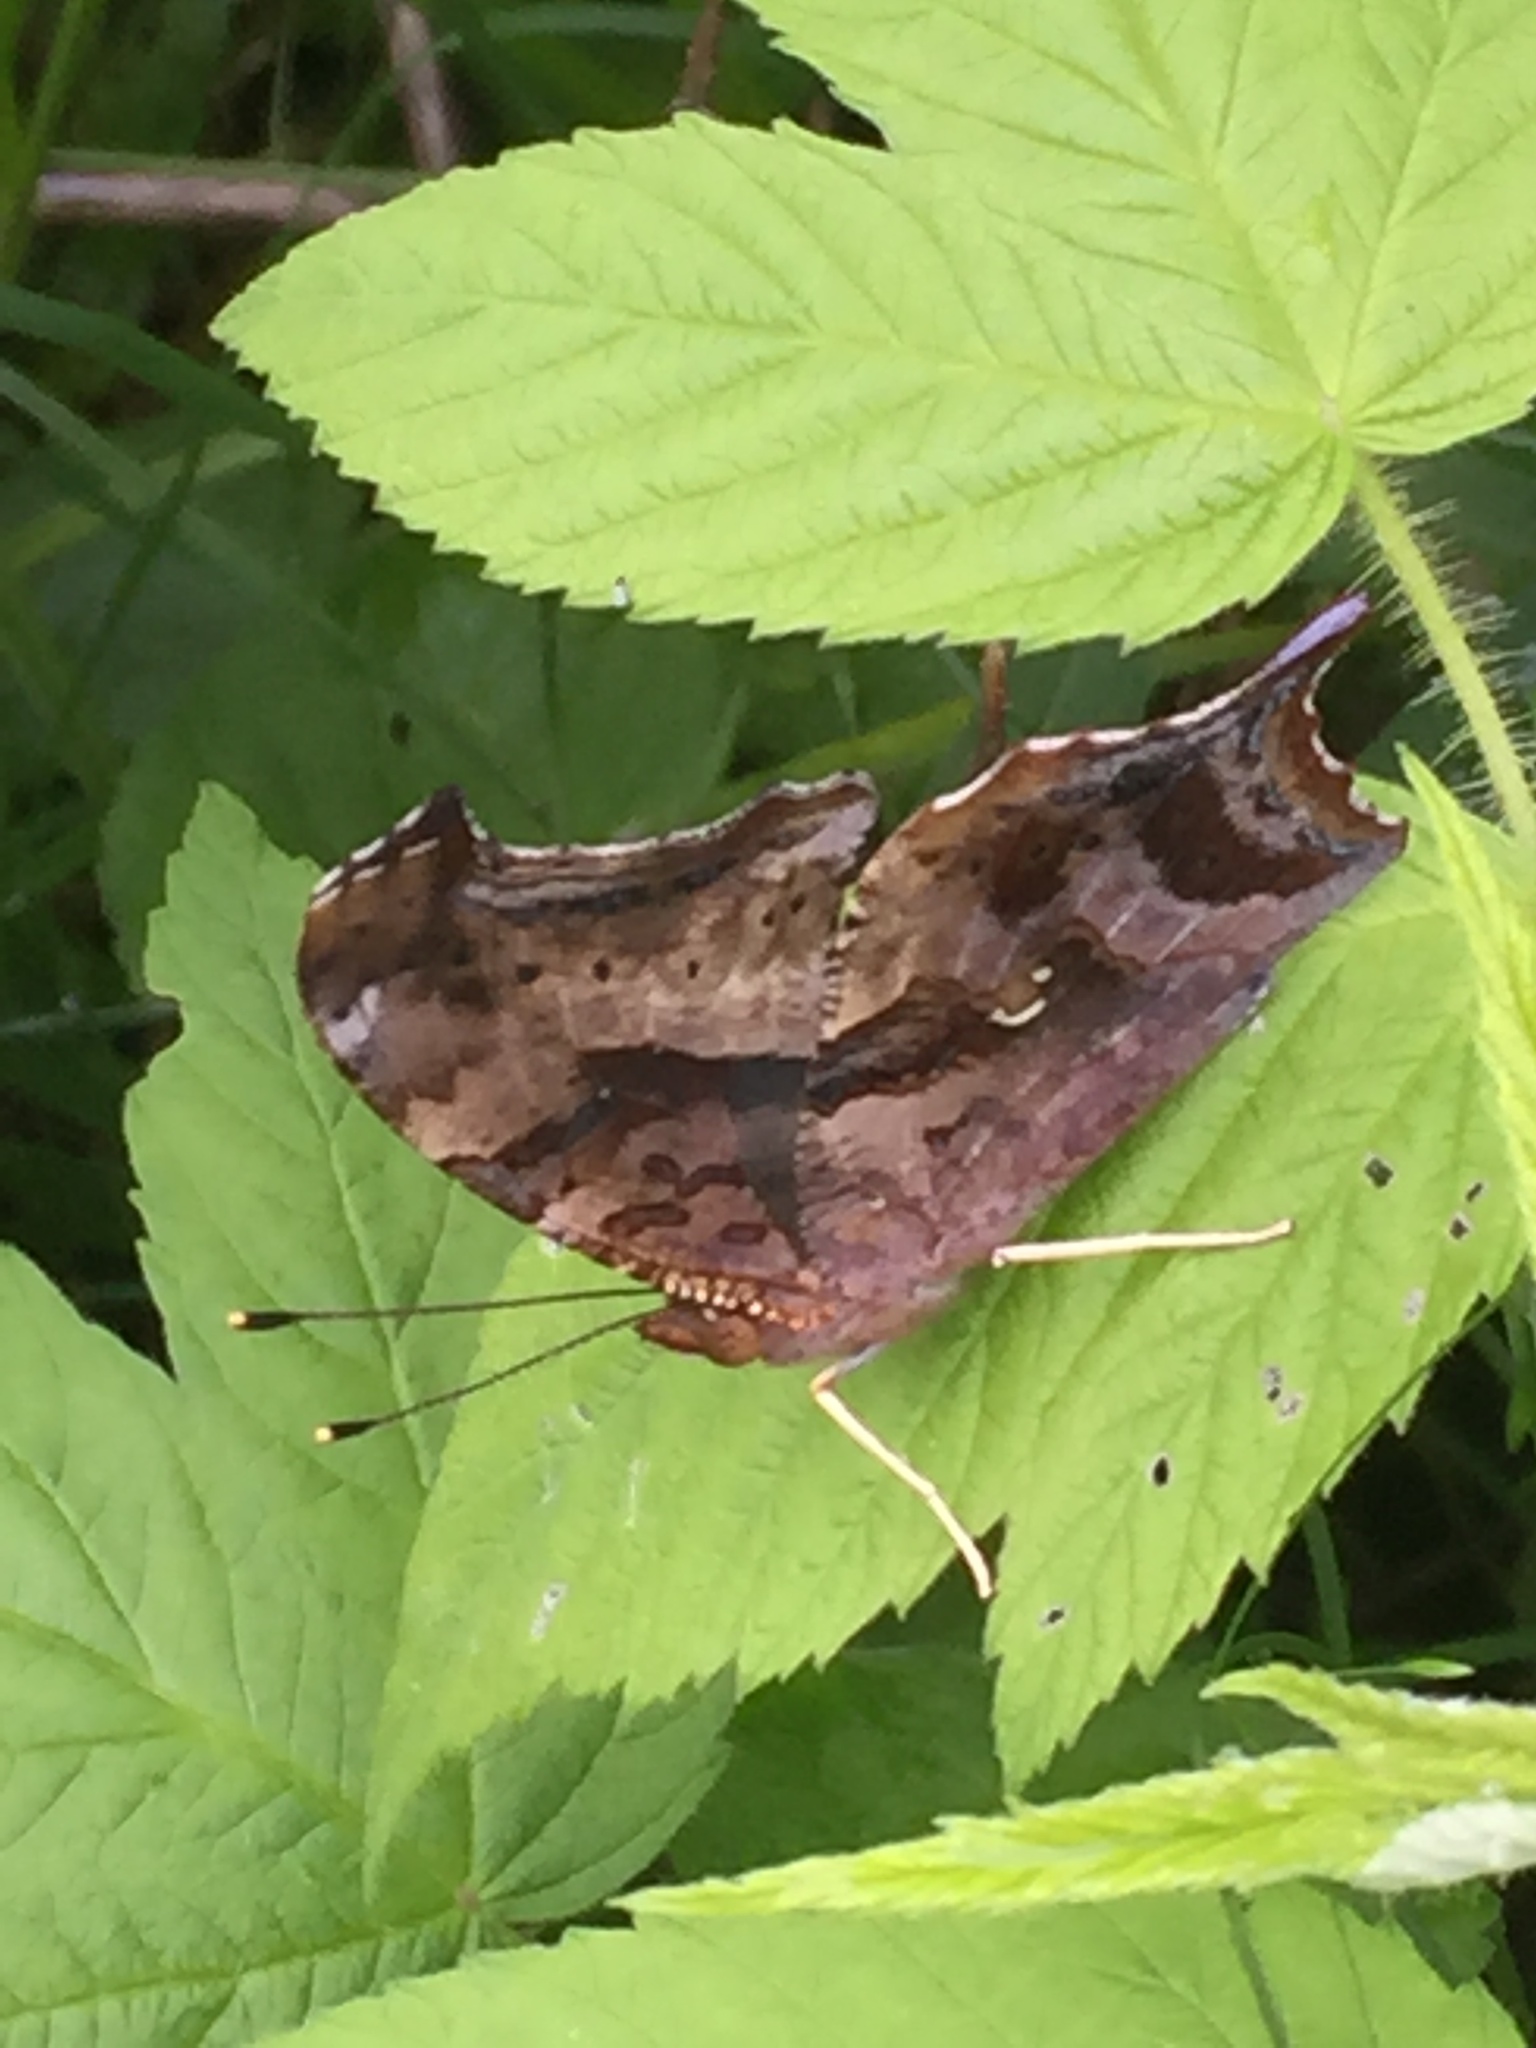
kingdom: Animalia
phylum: Arthropoda
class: Insecta
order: Lepidoptera
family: Nymphalidae
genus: Polygonia
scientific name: Polygonia interrogationis
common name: Question mark
